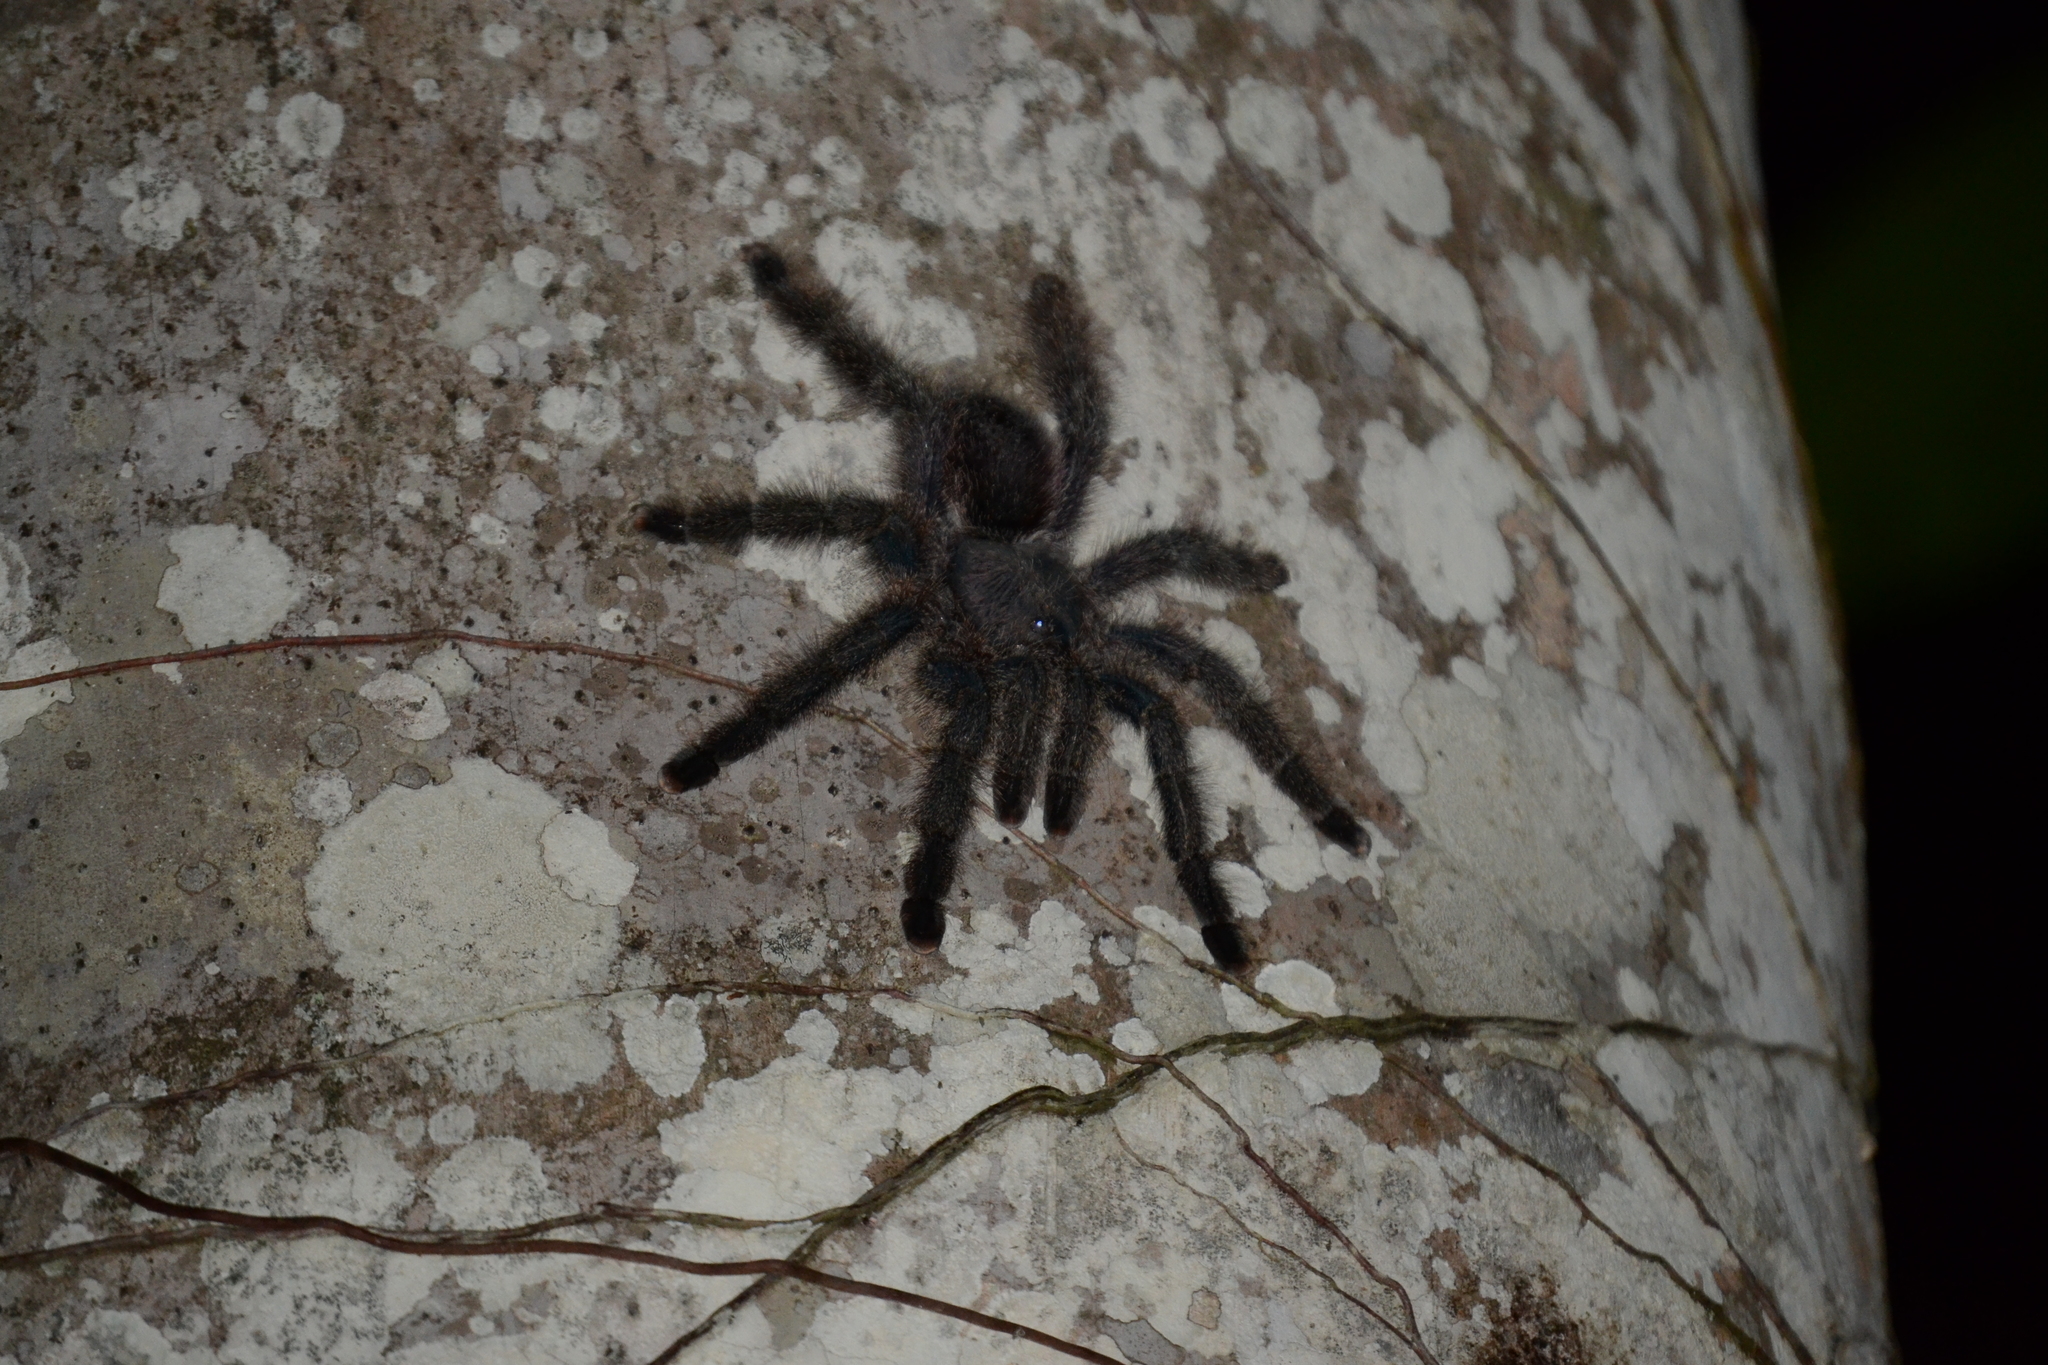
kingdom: Animalia
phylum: Arthropoda
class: Arachnida
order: Araneae
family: Theraphosidae
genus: Avicularia
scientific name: Avicularia juruensis
